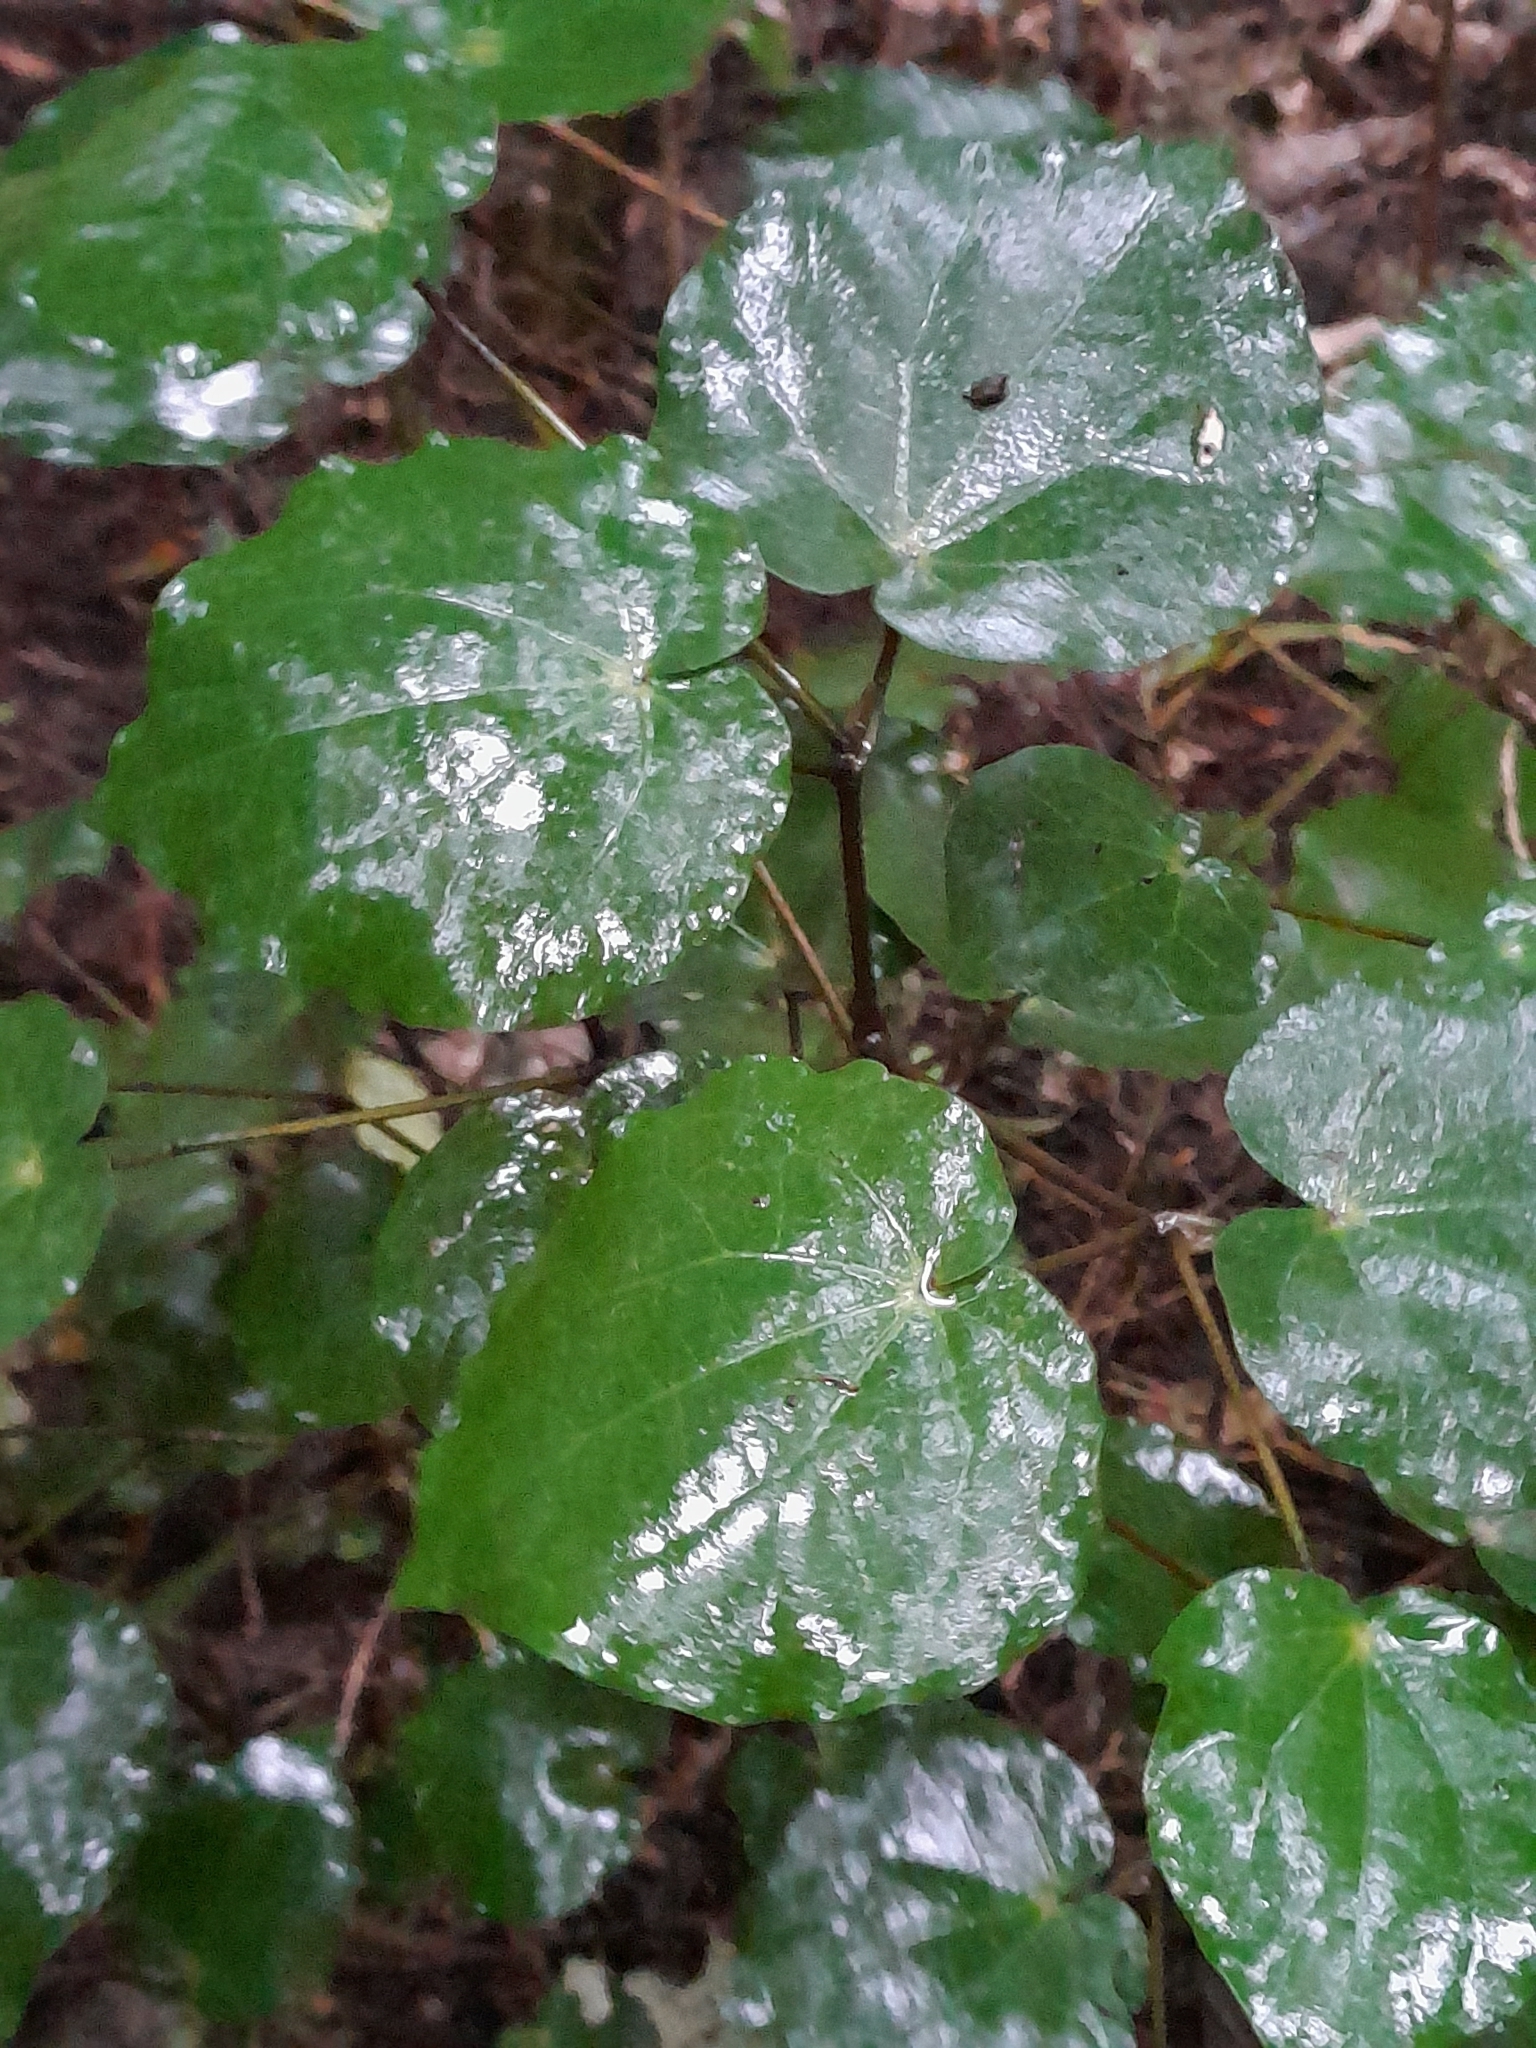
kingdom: Plantae
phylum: Tracheophyta
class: Magnoliopsida
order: Piperales
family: Piperaceae
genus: Macropiper
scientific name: Macropiper excelsum
